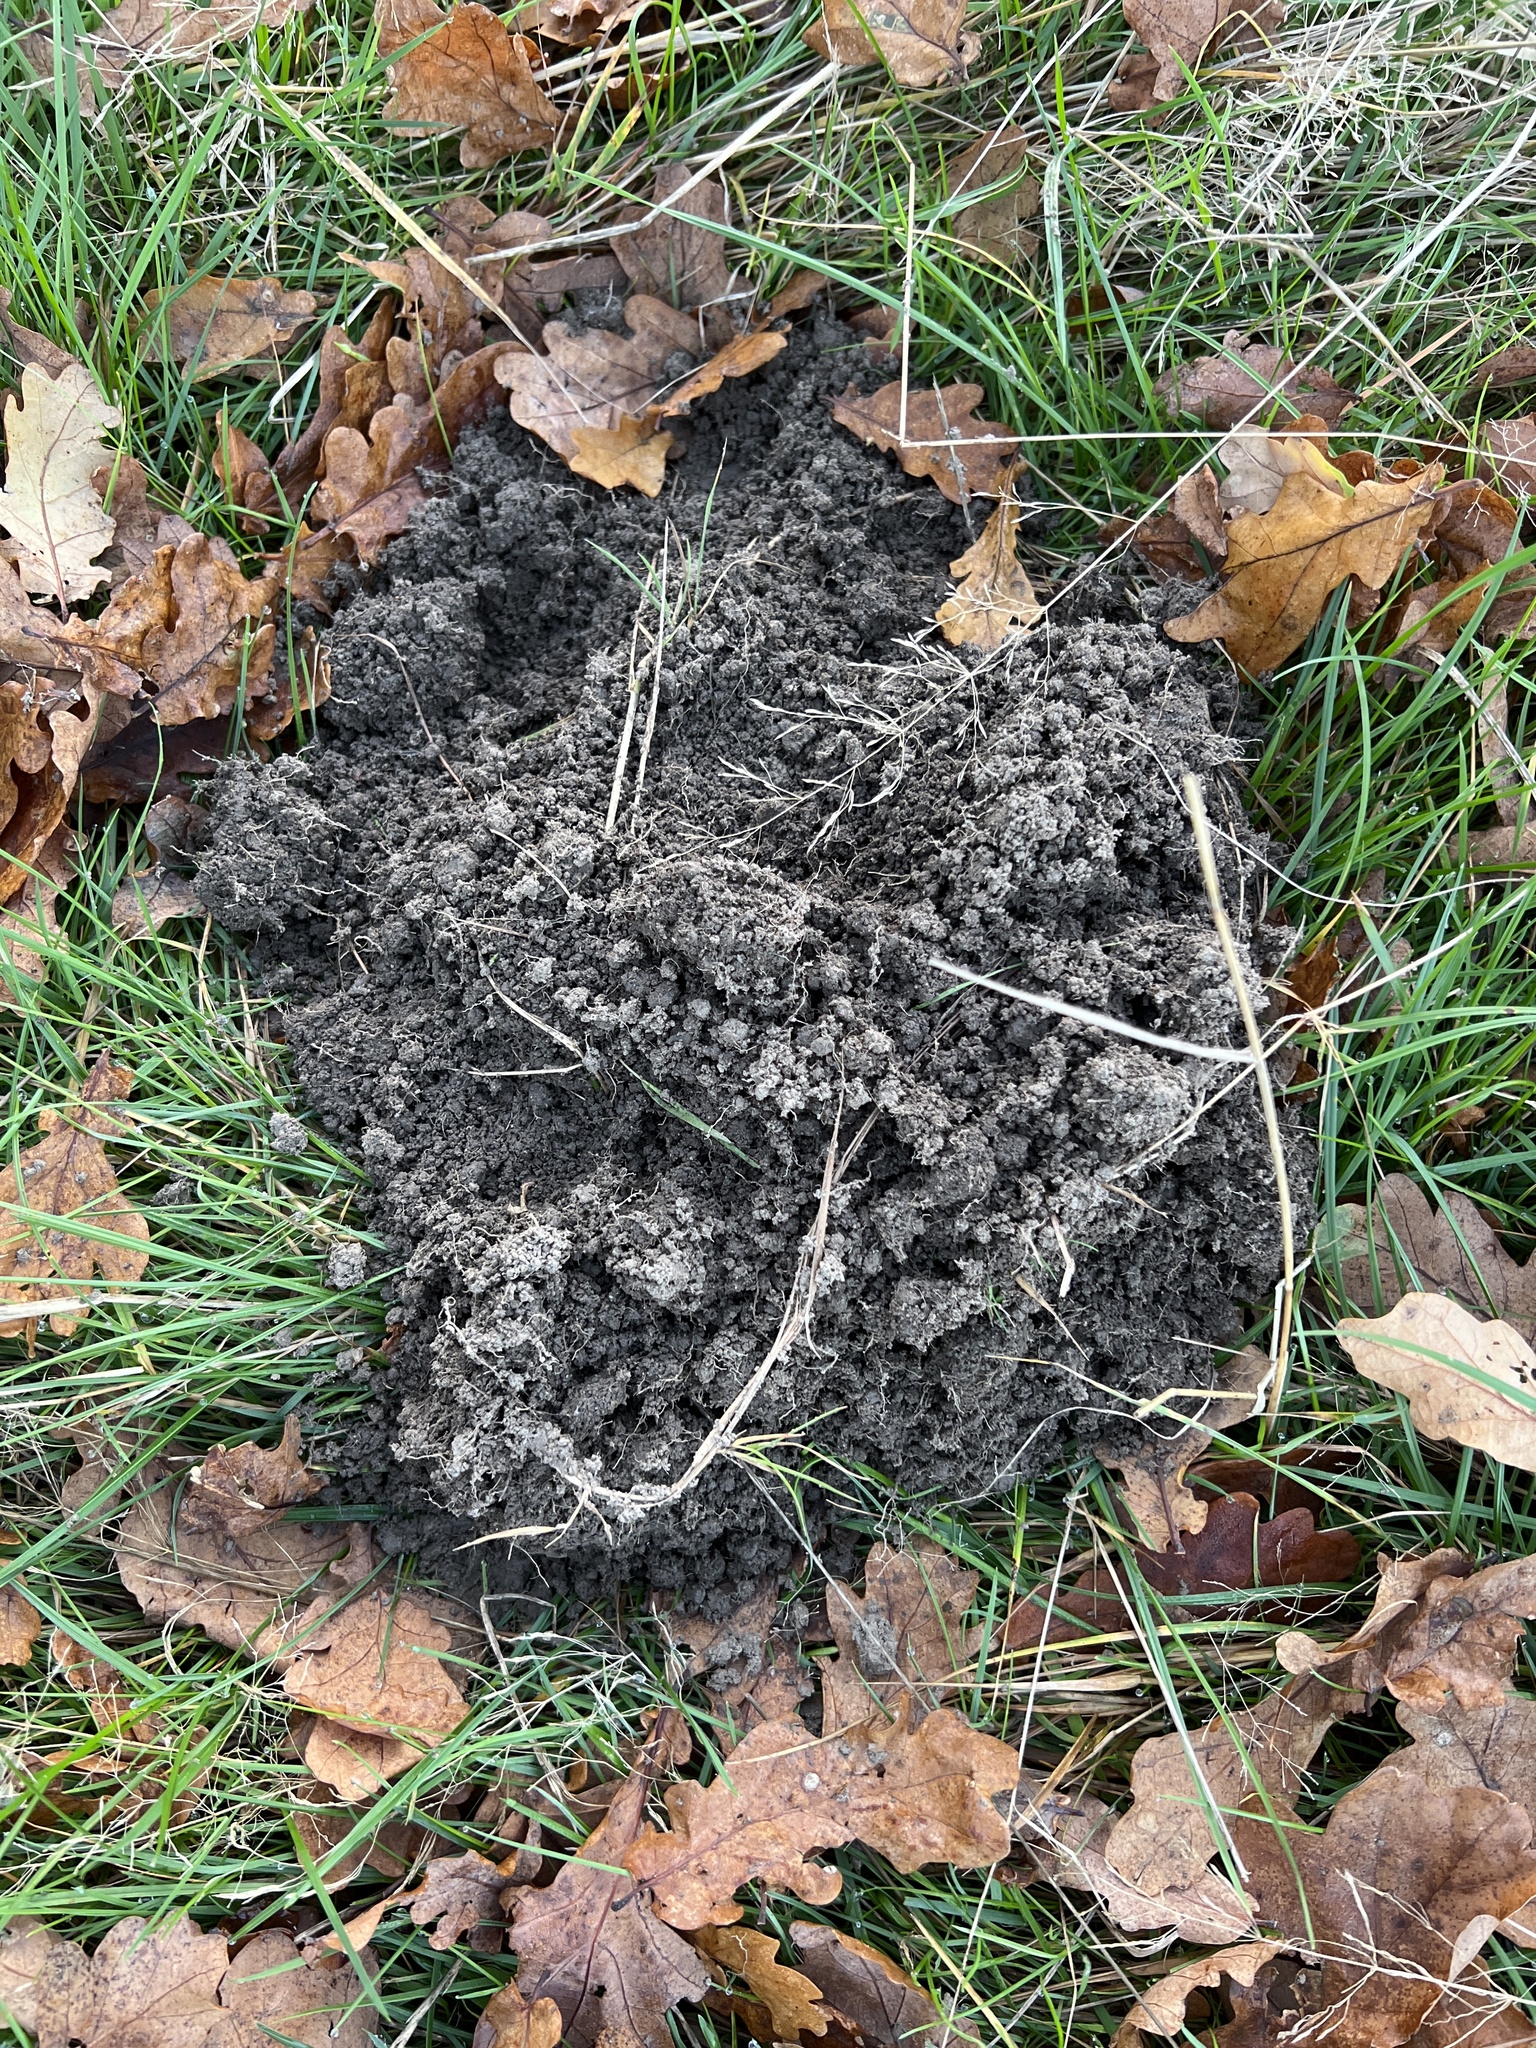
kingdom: Animalia
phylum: Chordata
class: Mammalia
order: Soricomorpha
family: Talpidae
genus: Talpa
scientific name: Talpa europaea
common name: European mole
